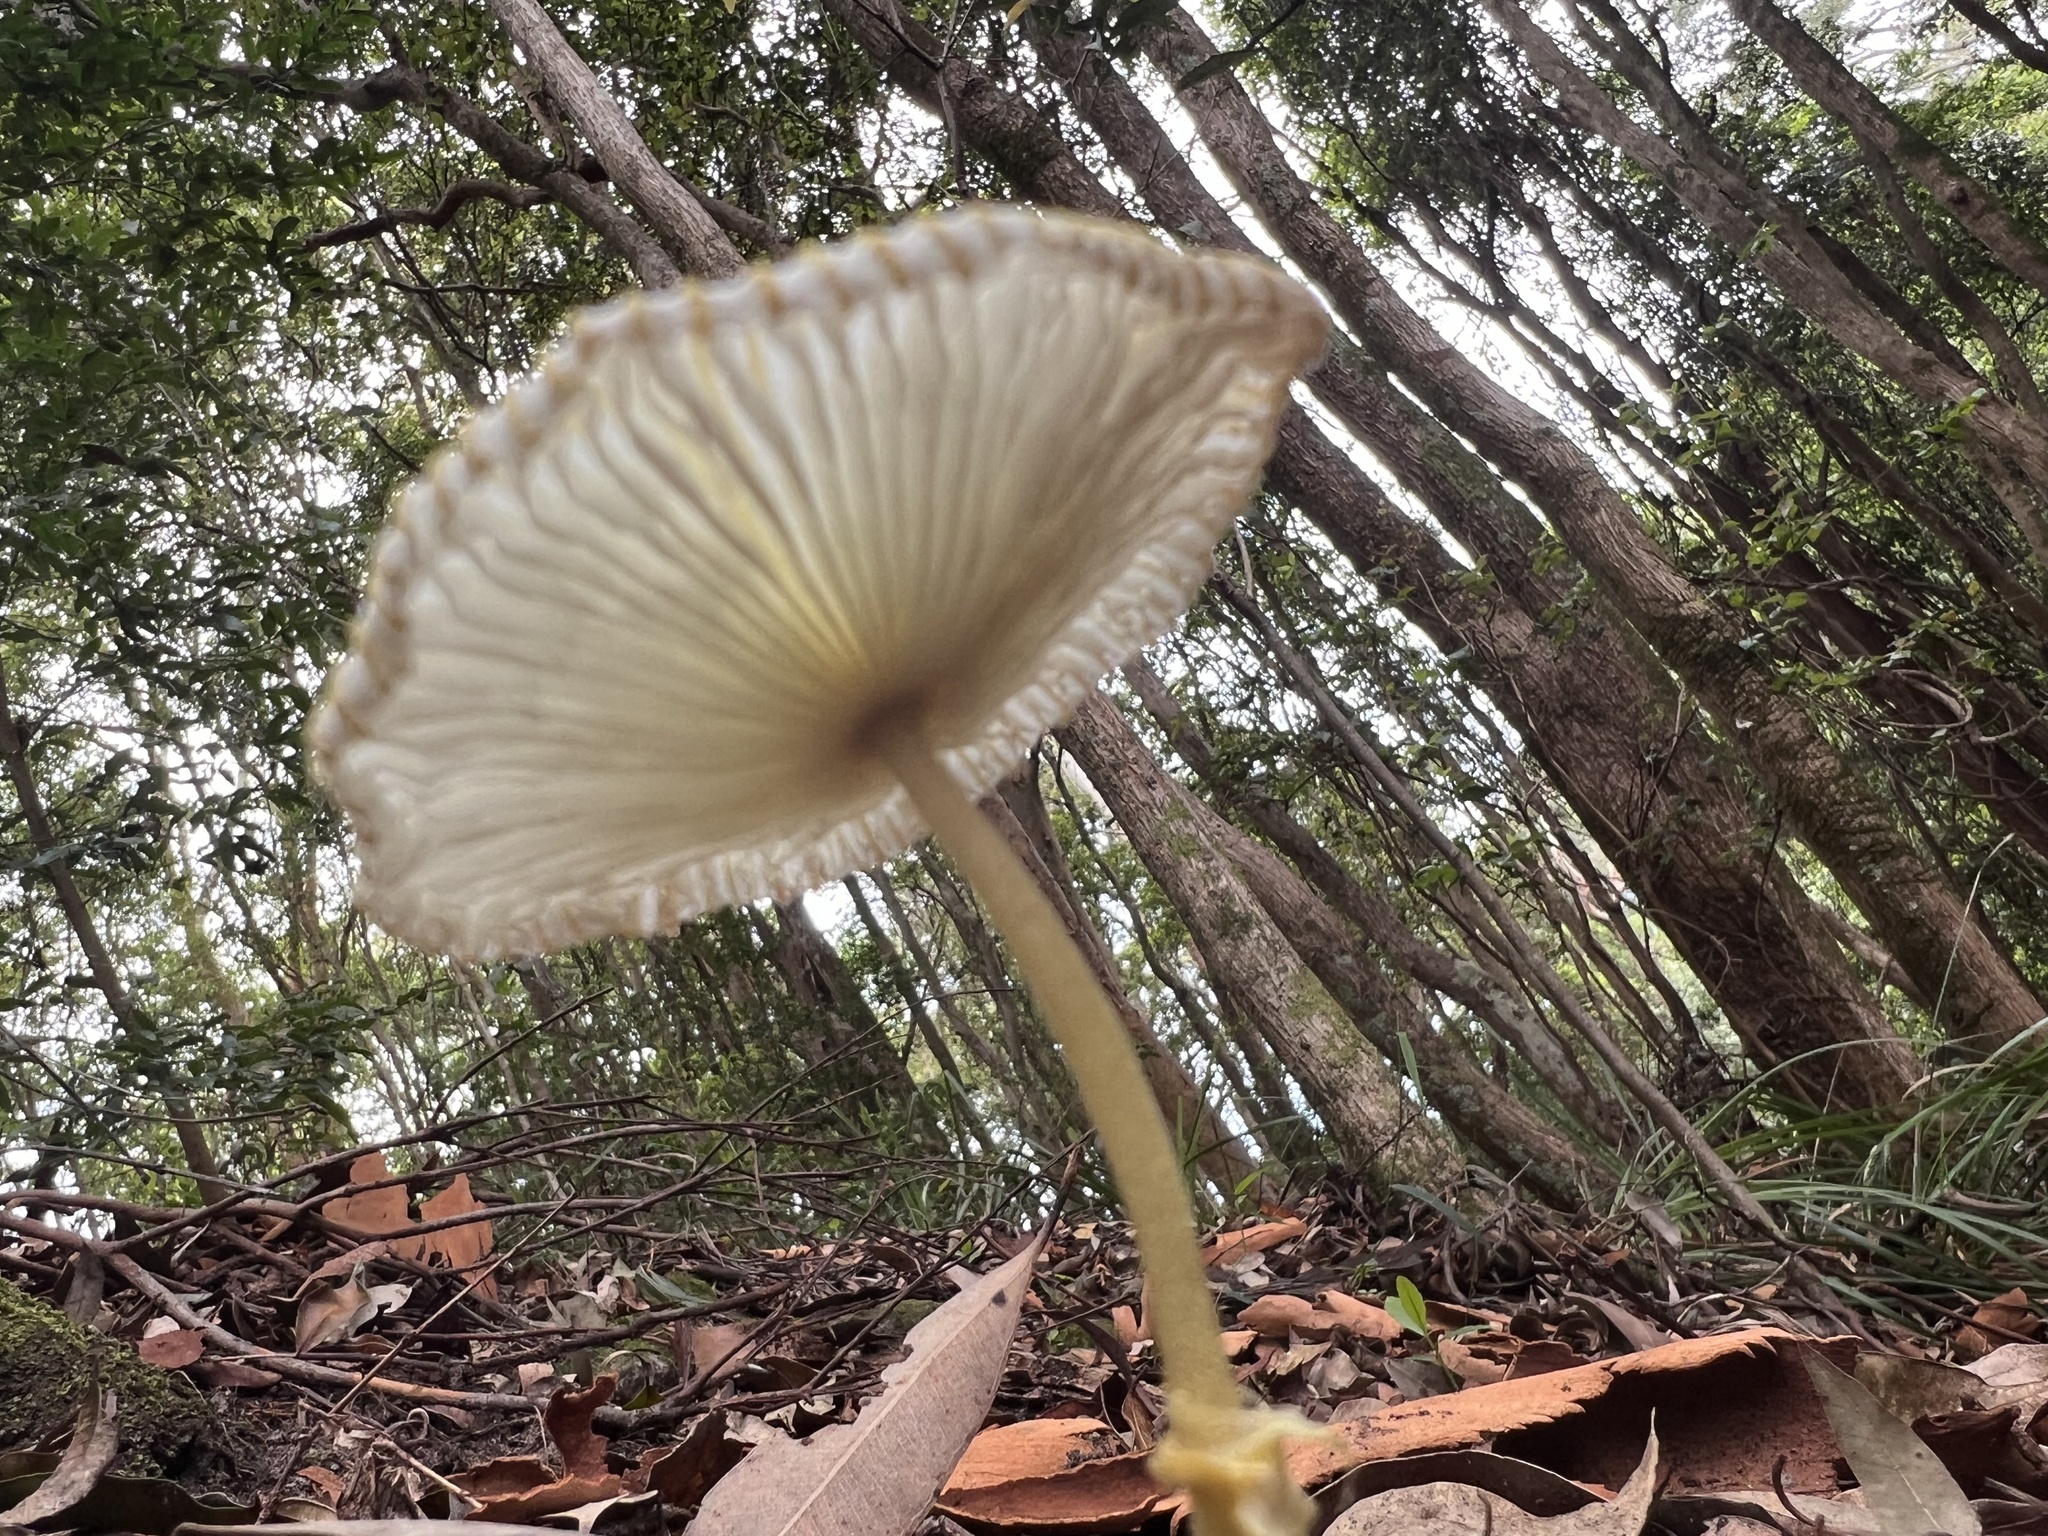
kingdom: Fungi
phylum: Basidiomycota
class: Agaricomycetes
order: Agaricales
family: Agaricaceae
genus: Leucocoprinus
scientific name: Leucocoprinus fragilissimus
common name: Fragile dapperling
